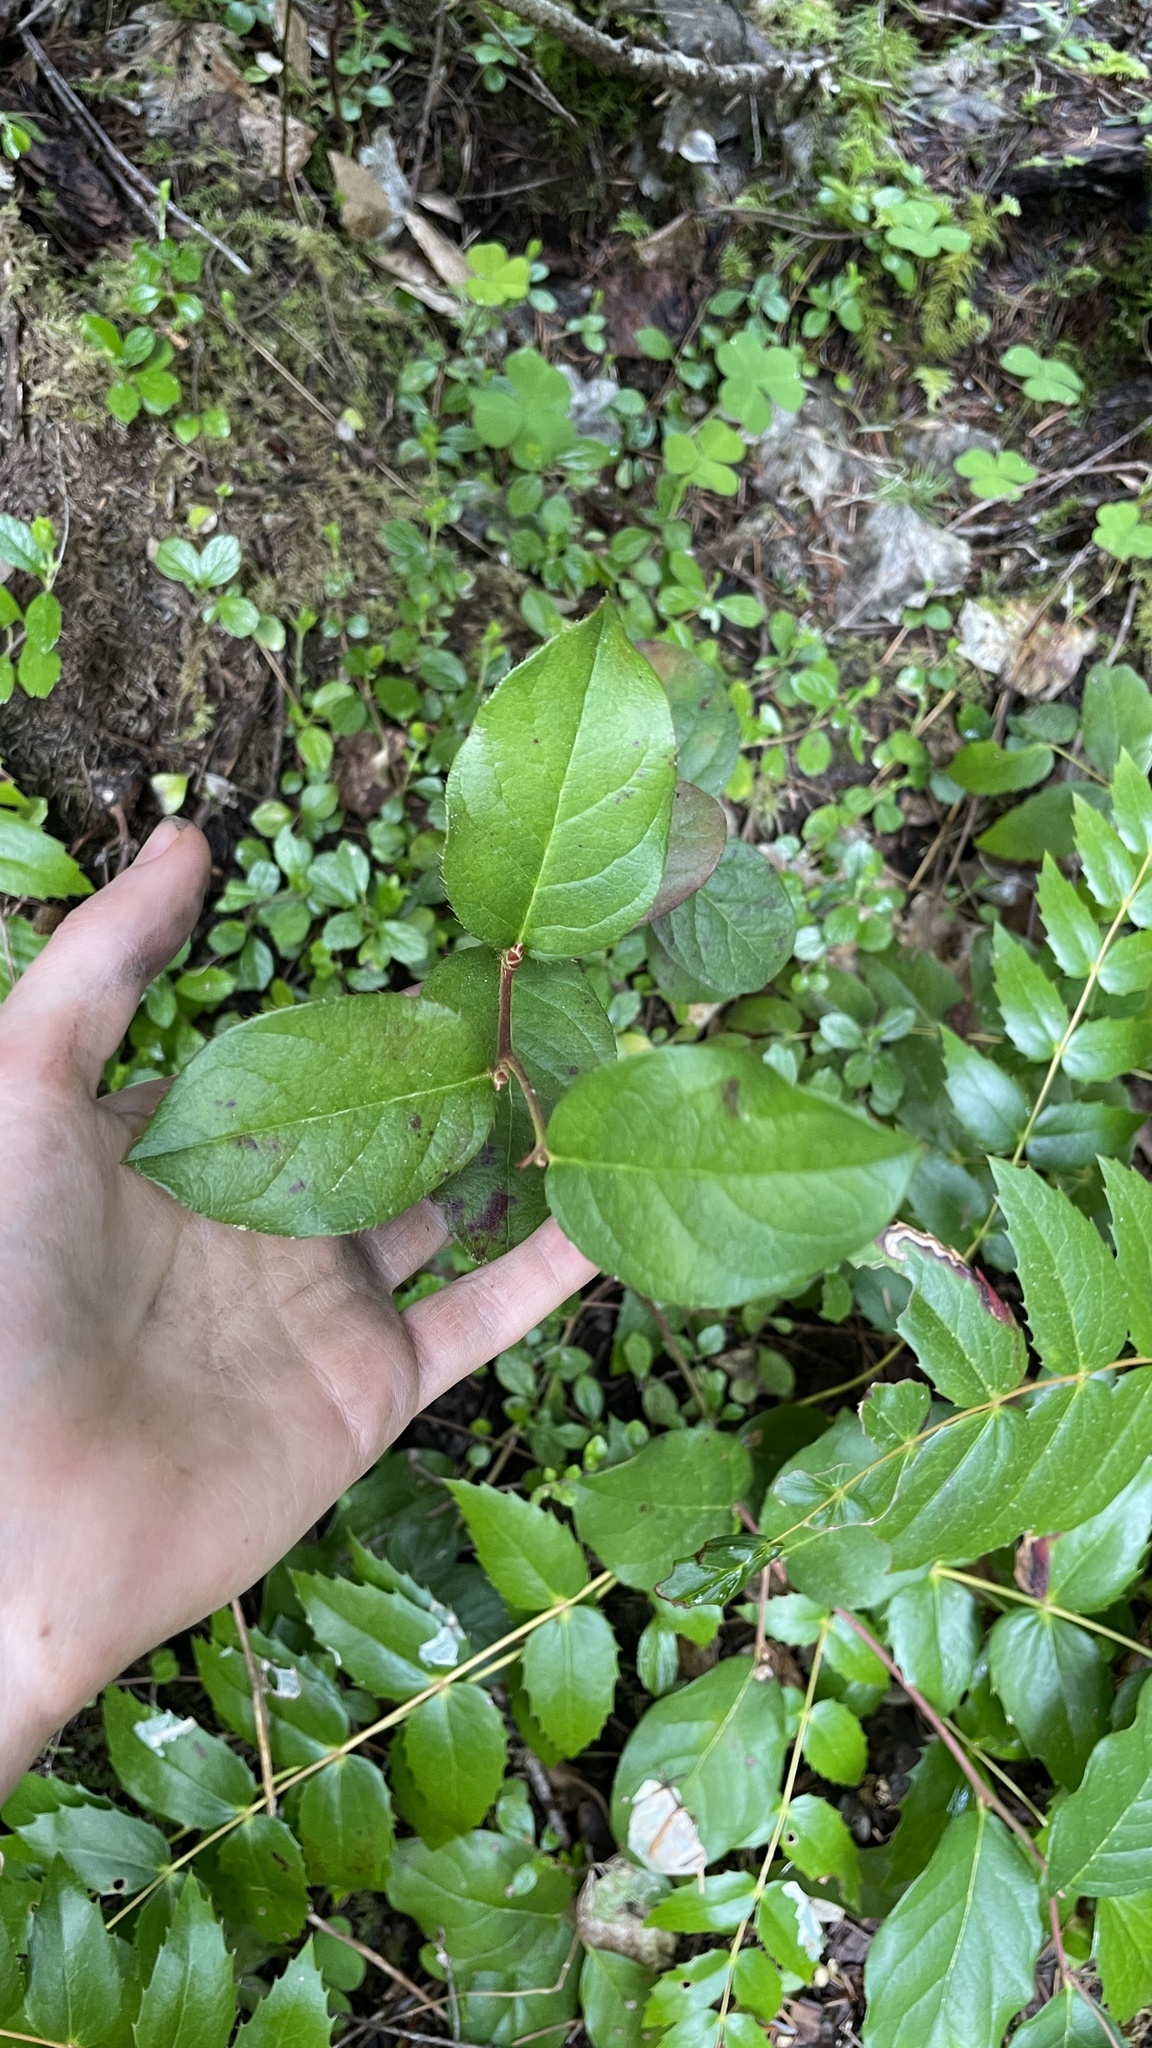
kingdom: Plantae
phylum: Tracheophyta
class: Magnoliopsida
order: Ericales
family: Ericaceae
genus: Gaultheria
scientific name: Gaultheria shallon
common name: Shallon
